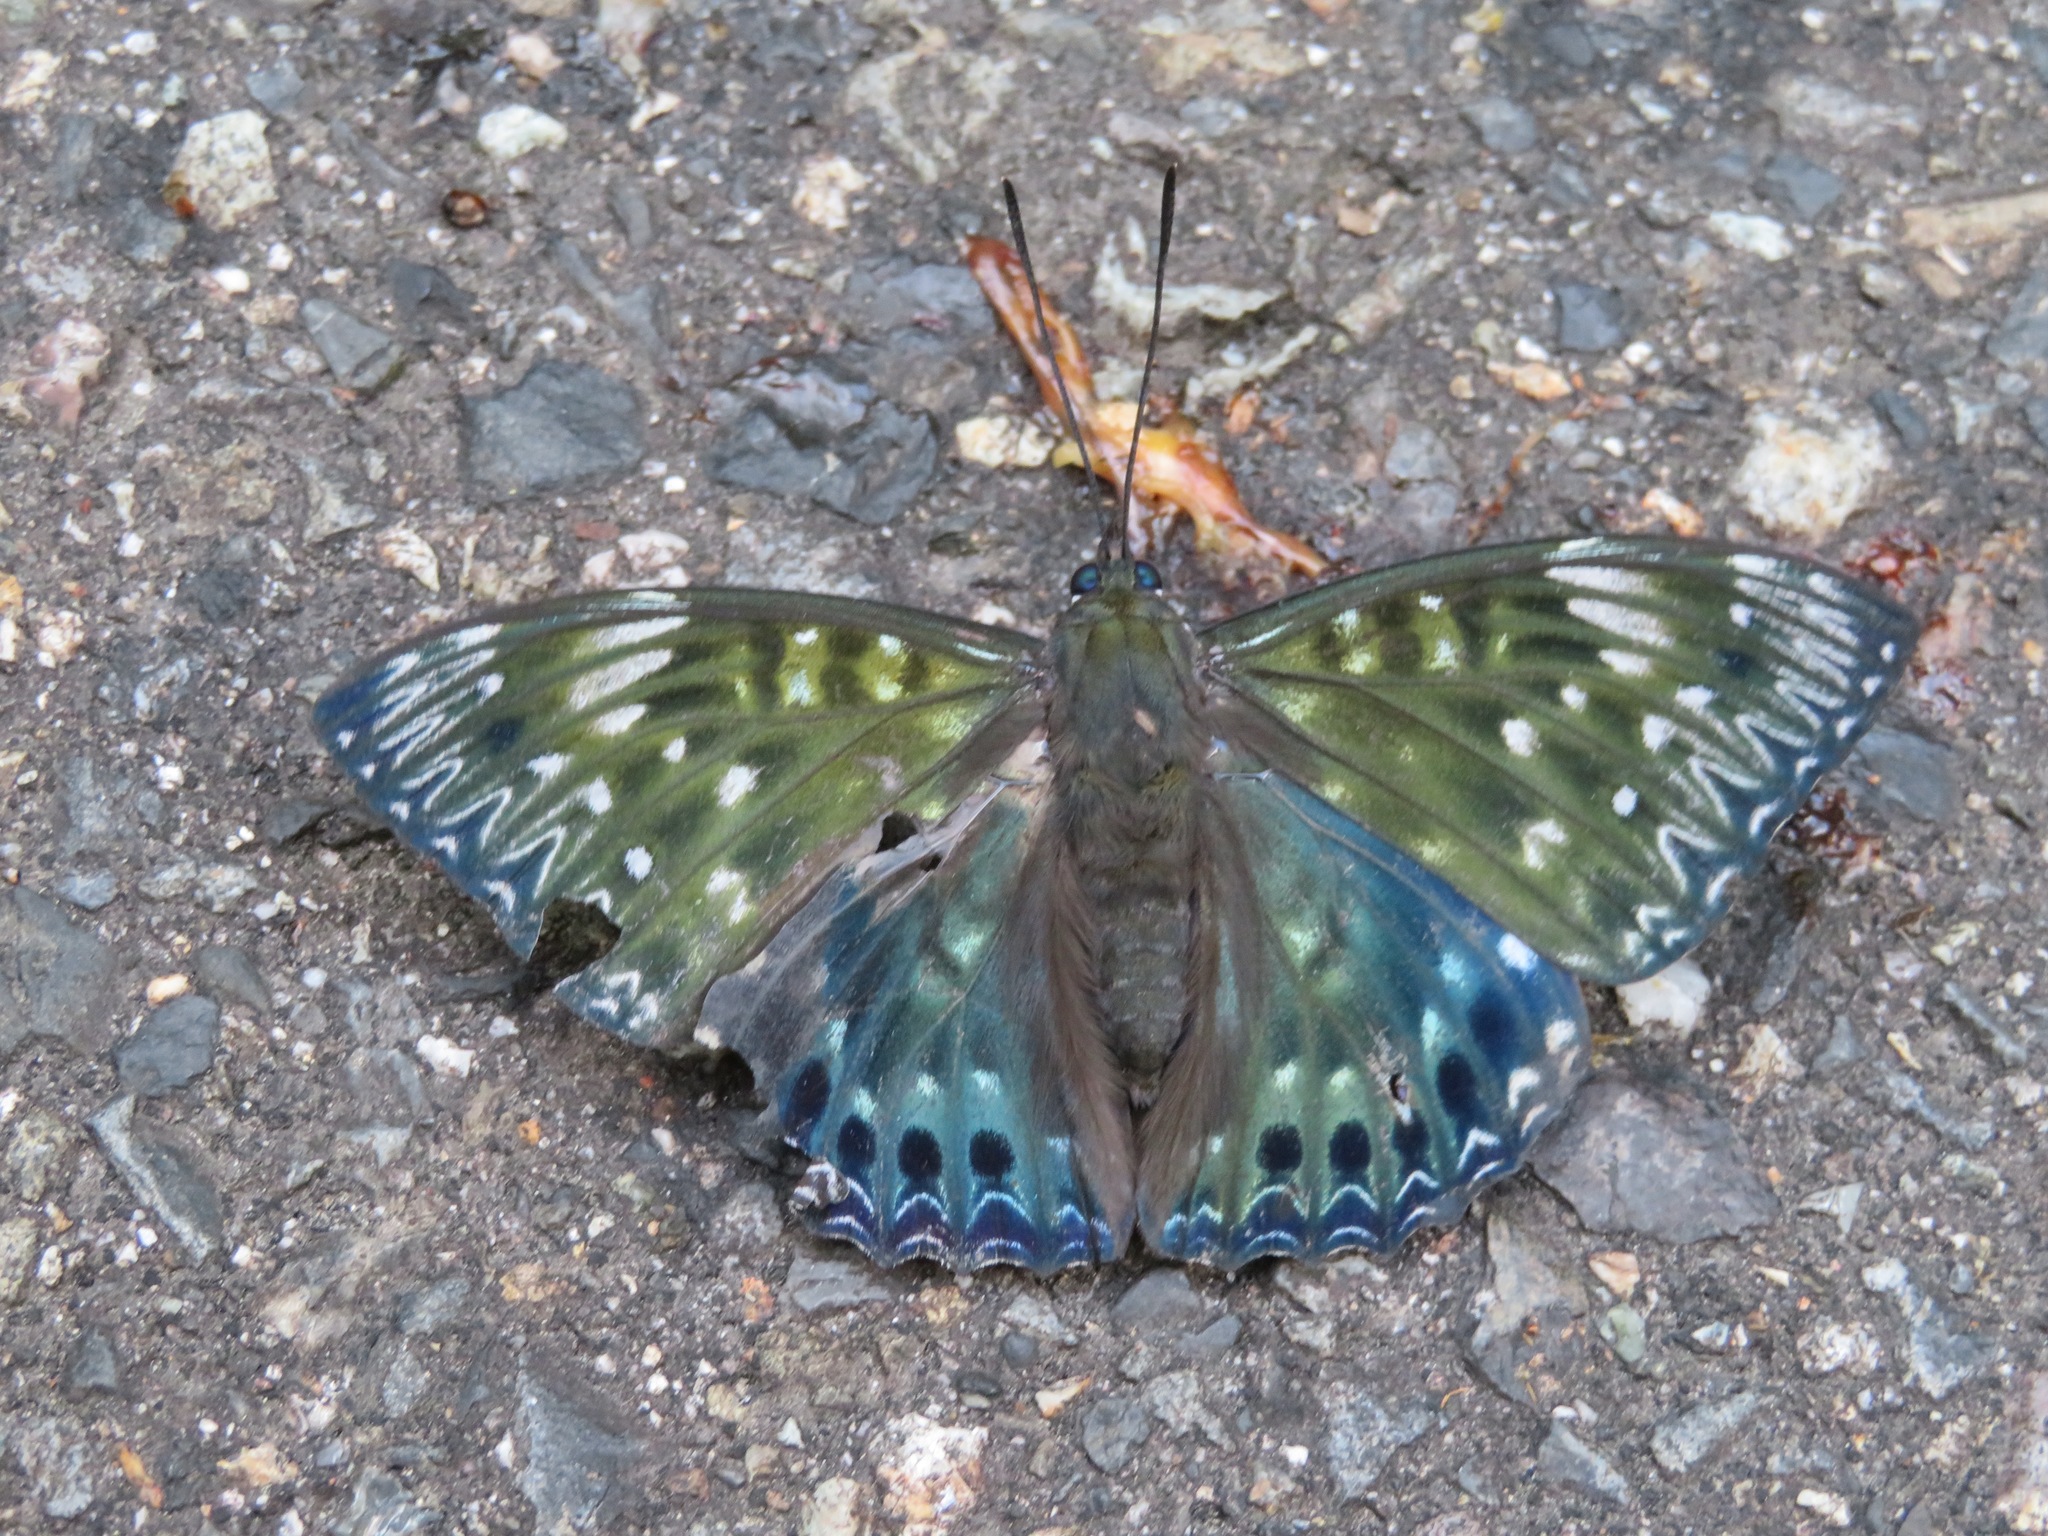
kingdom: Animalia
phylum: Arthropoda
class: Insecta
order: Lepidoptera
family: Nymphalidae
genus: Dichorragia
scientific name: Dichorragia nesimachus
